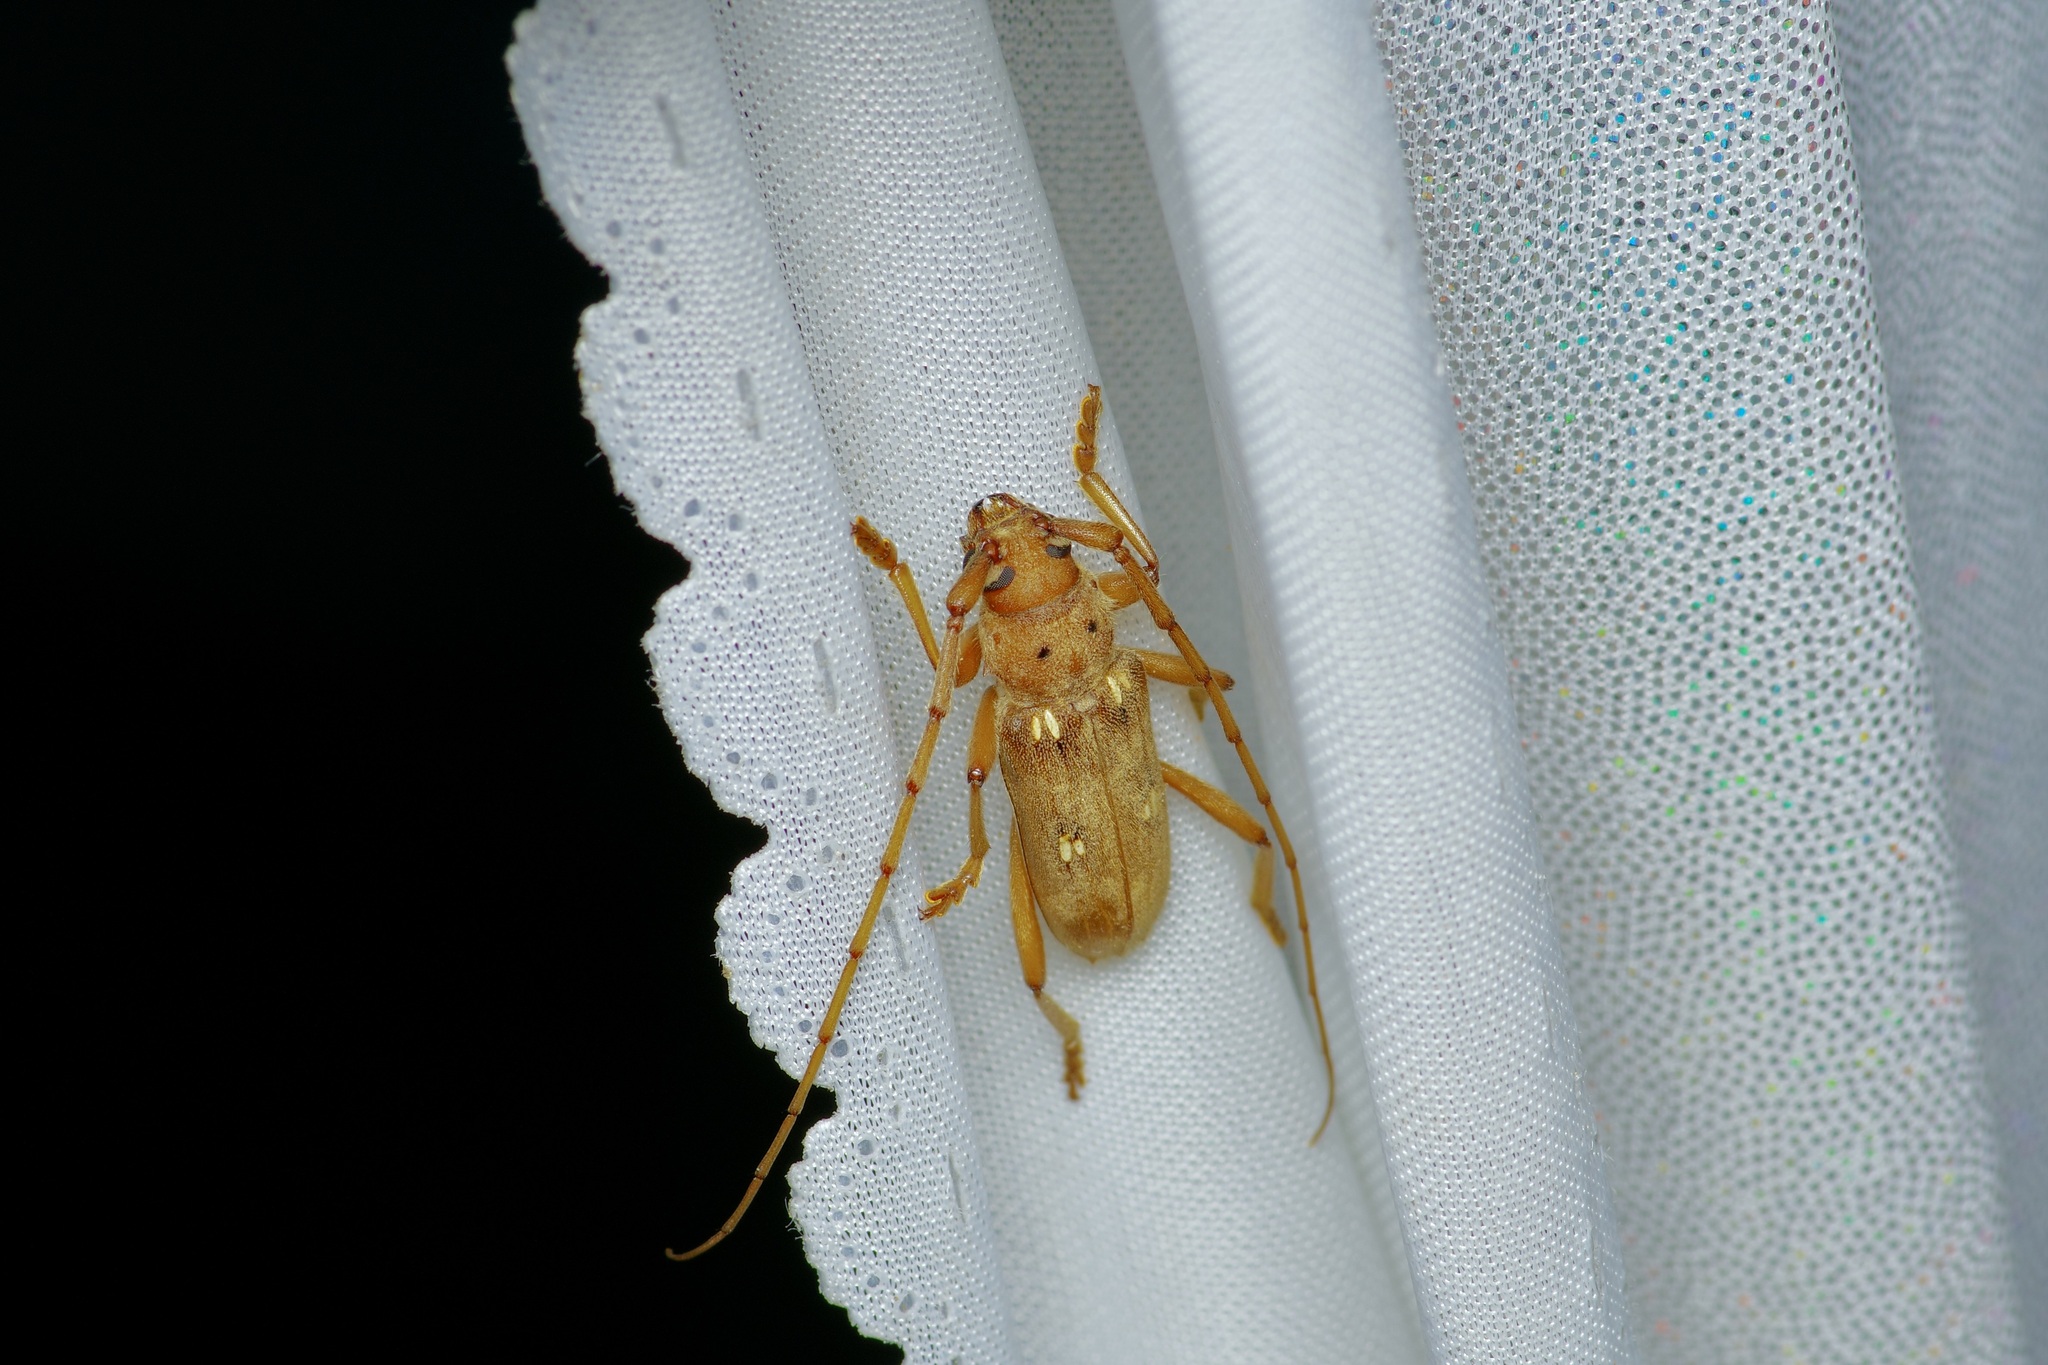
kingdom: Animalia
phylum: Arthropoda
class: Insecta
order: Coleoptera
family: Cerambycidae
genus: Eburia
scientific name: Eburia haldemani
